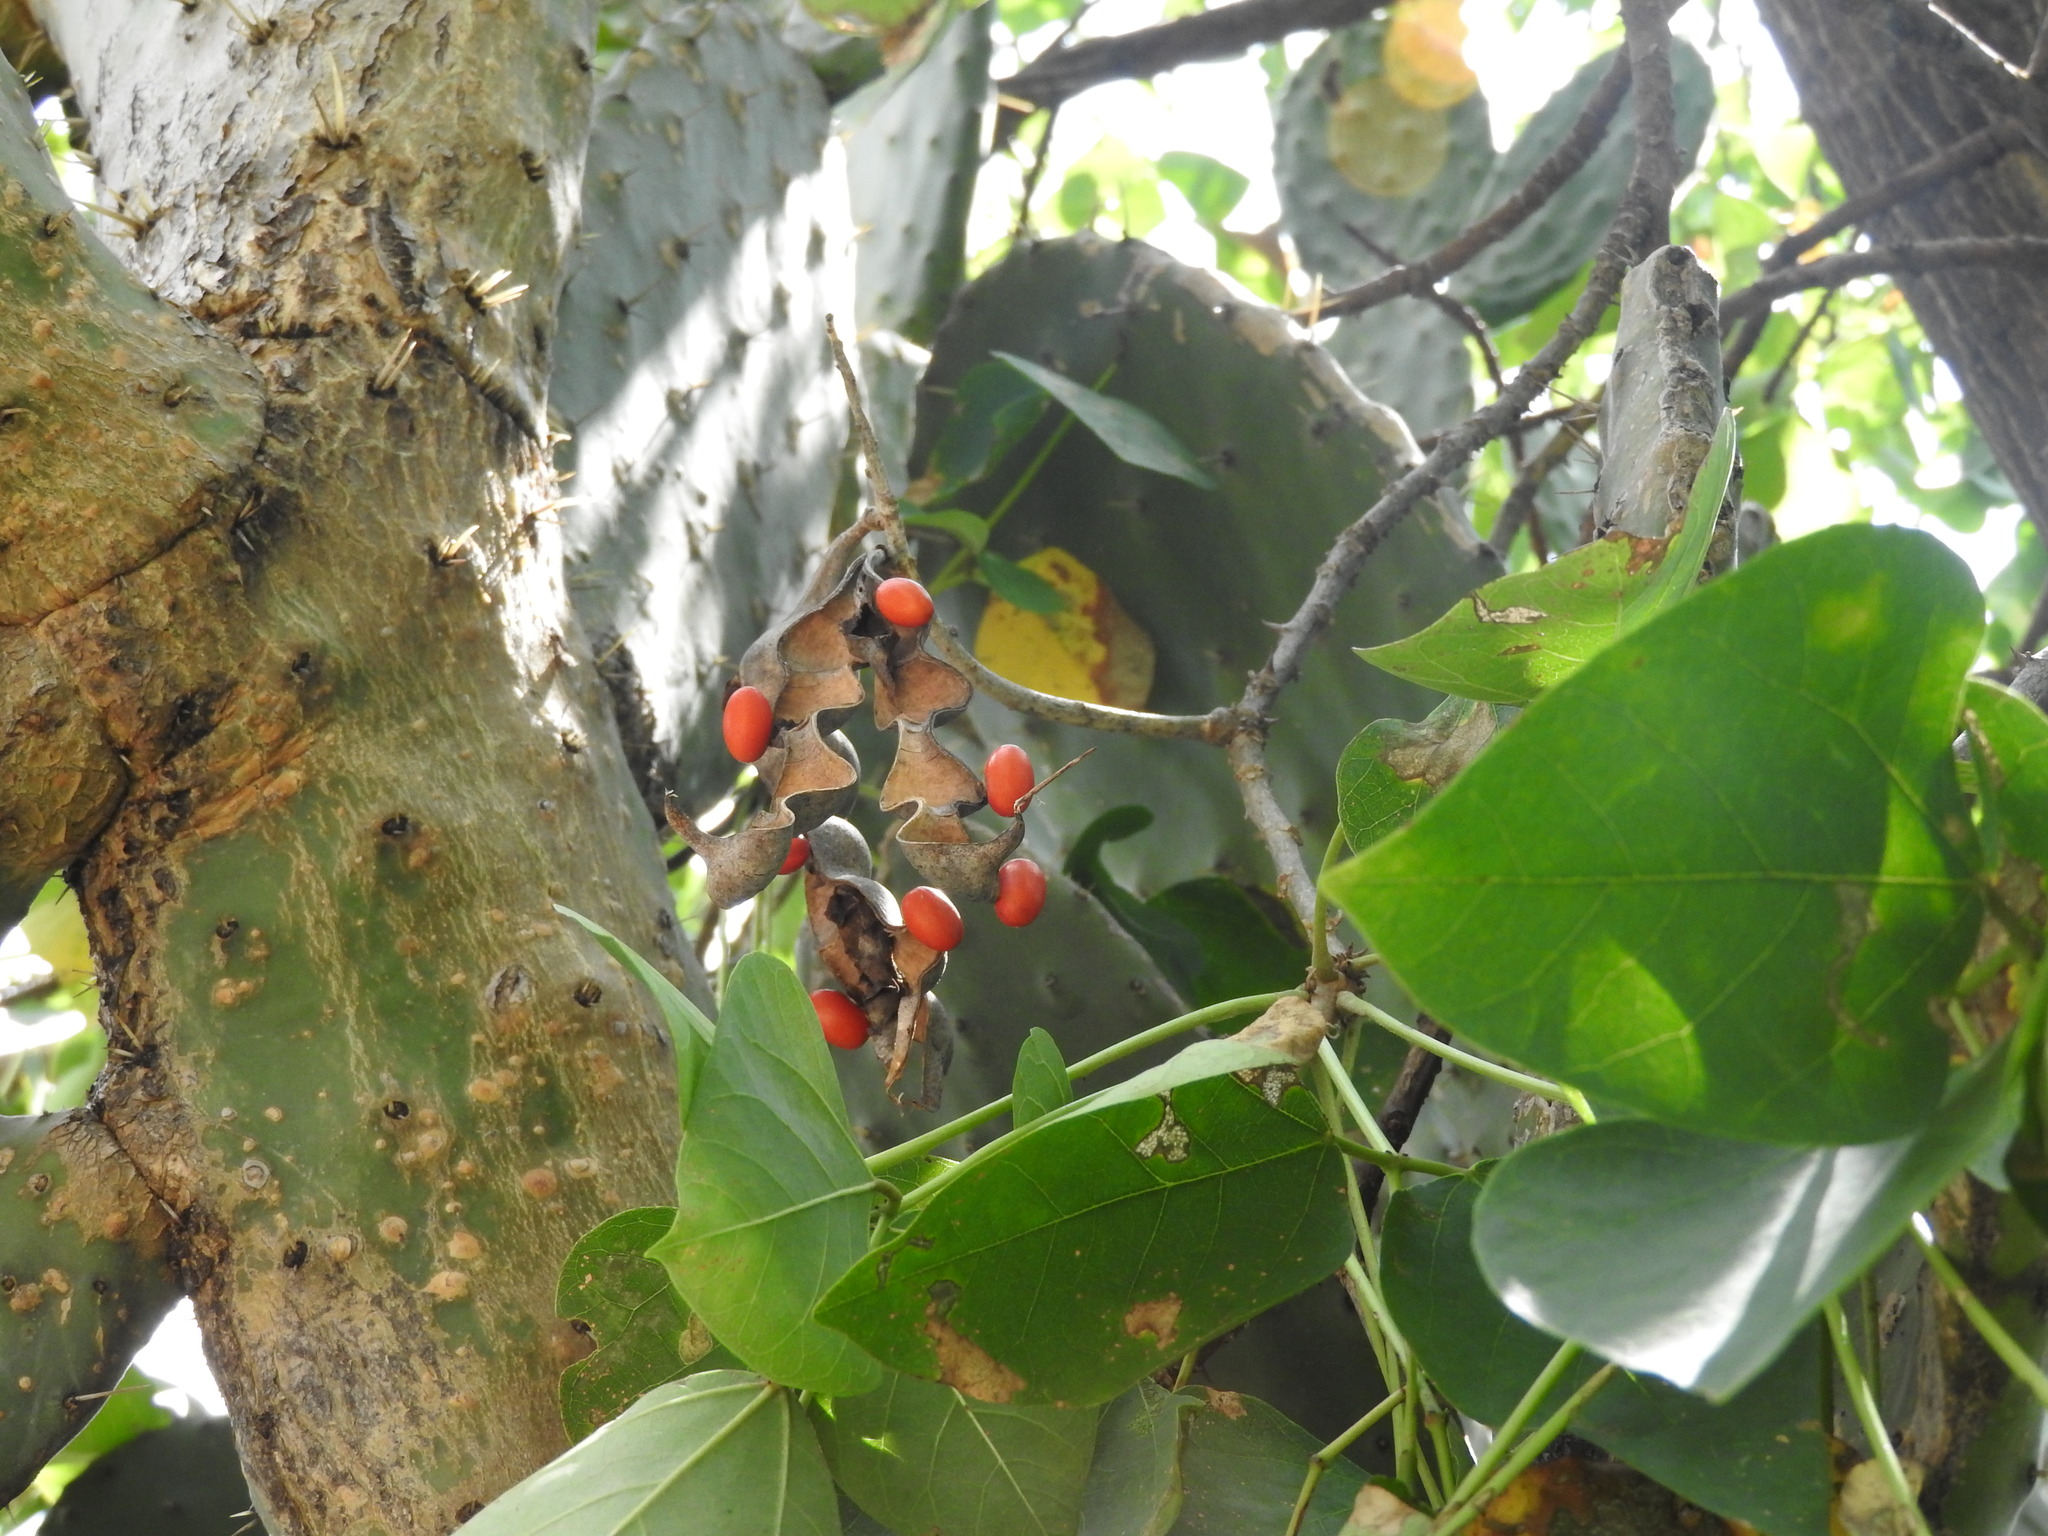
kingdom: Plantae
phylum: Tracheophyta
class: Magnoliopsida
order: Fabales
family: Fabaceae
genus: Erythrina
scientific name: Erythrina americana
